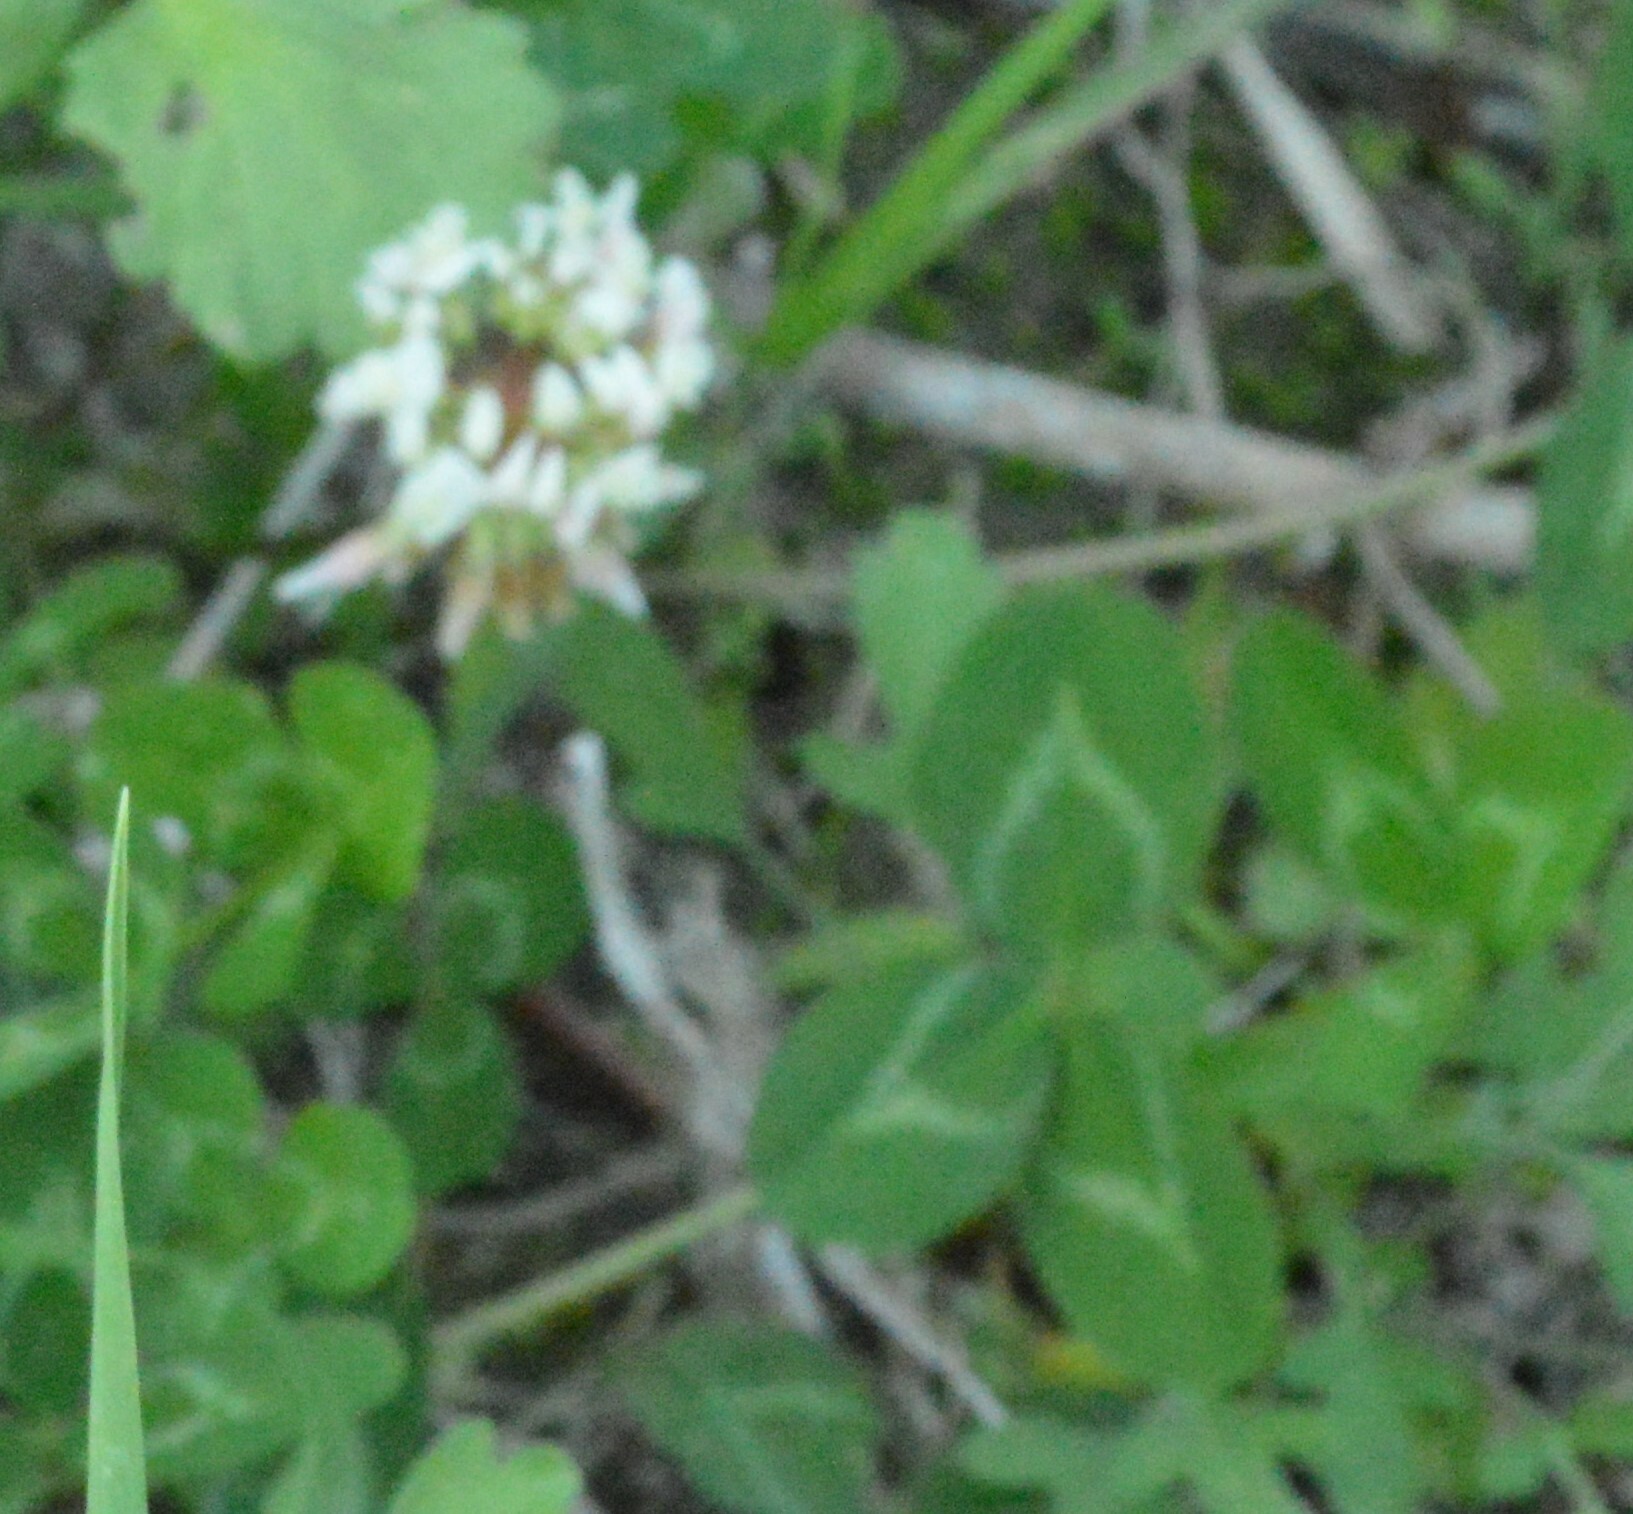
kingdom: Plantae
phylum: Tracheophyta
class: Magnoliopsida
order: Fabales
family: Fabaceae
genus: Trifolium
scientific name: Trifolium repens
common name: White clover
